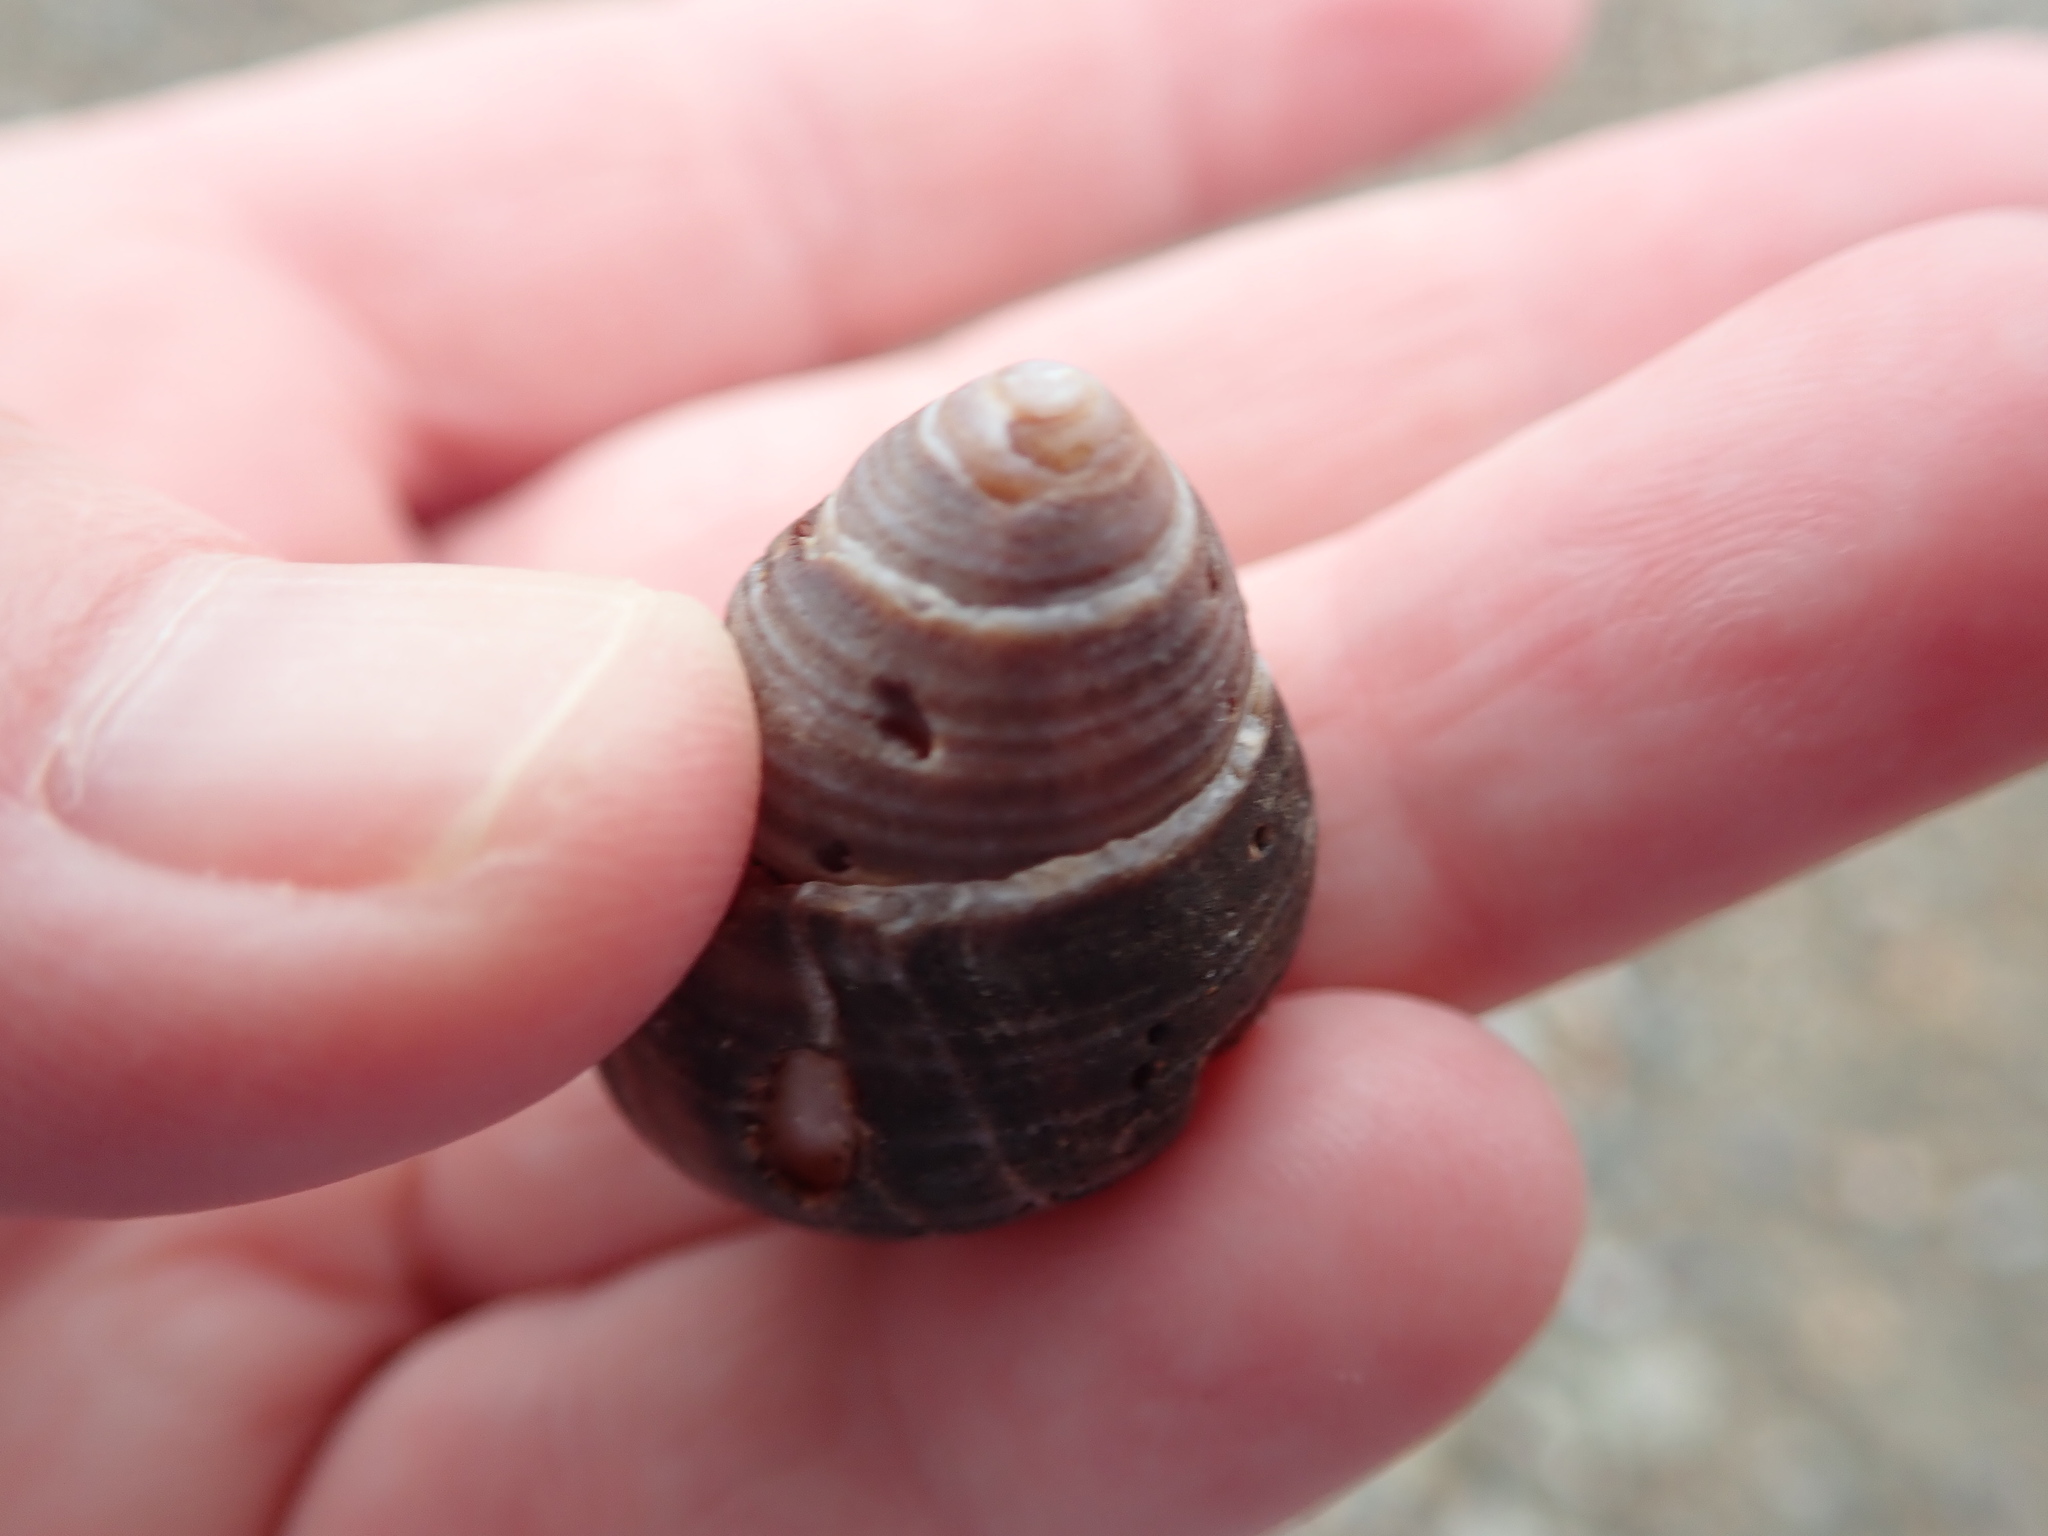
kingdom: Animalia
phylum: Mollusca
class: Gastropoda
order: Littorinimorpha
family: Littorinidae
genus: Littorina
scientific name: Littorina littorea
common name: Common periwinkle
